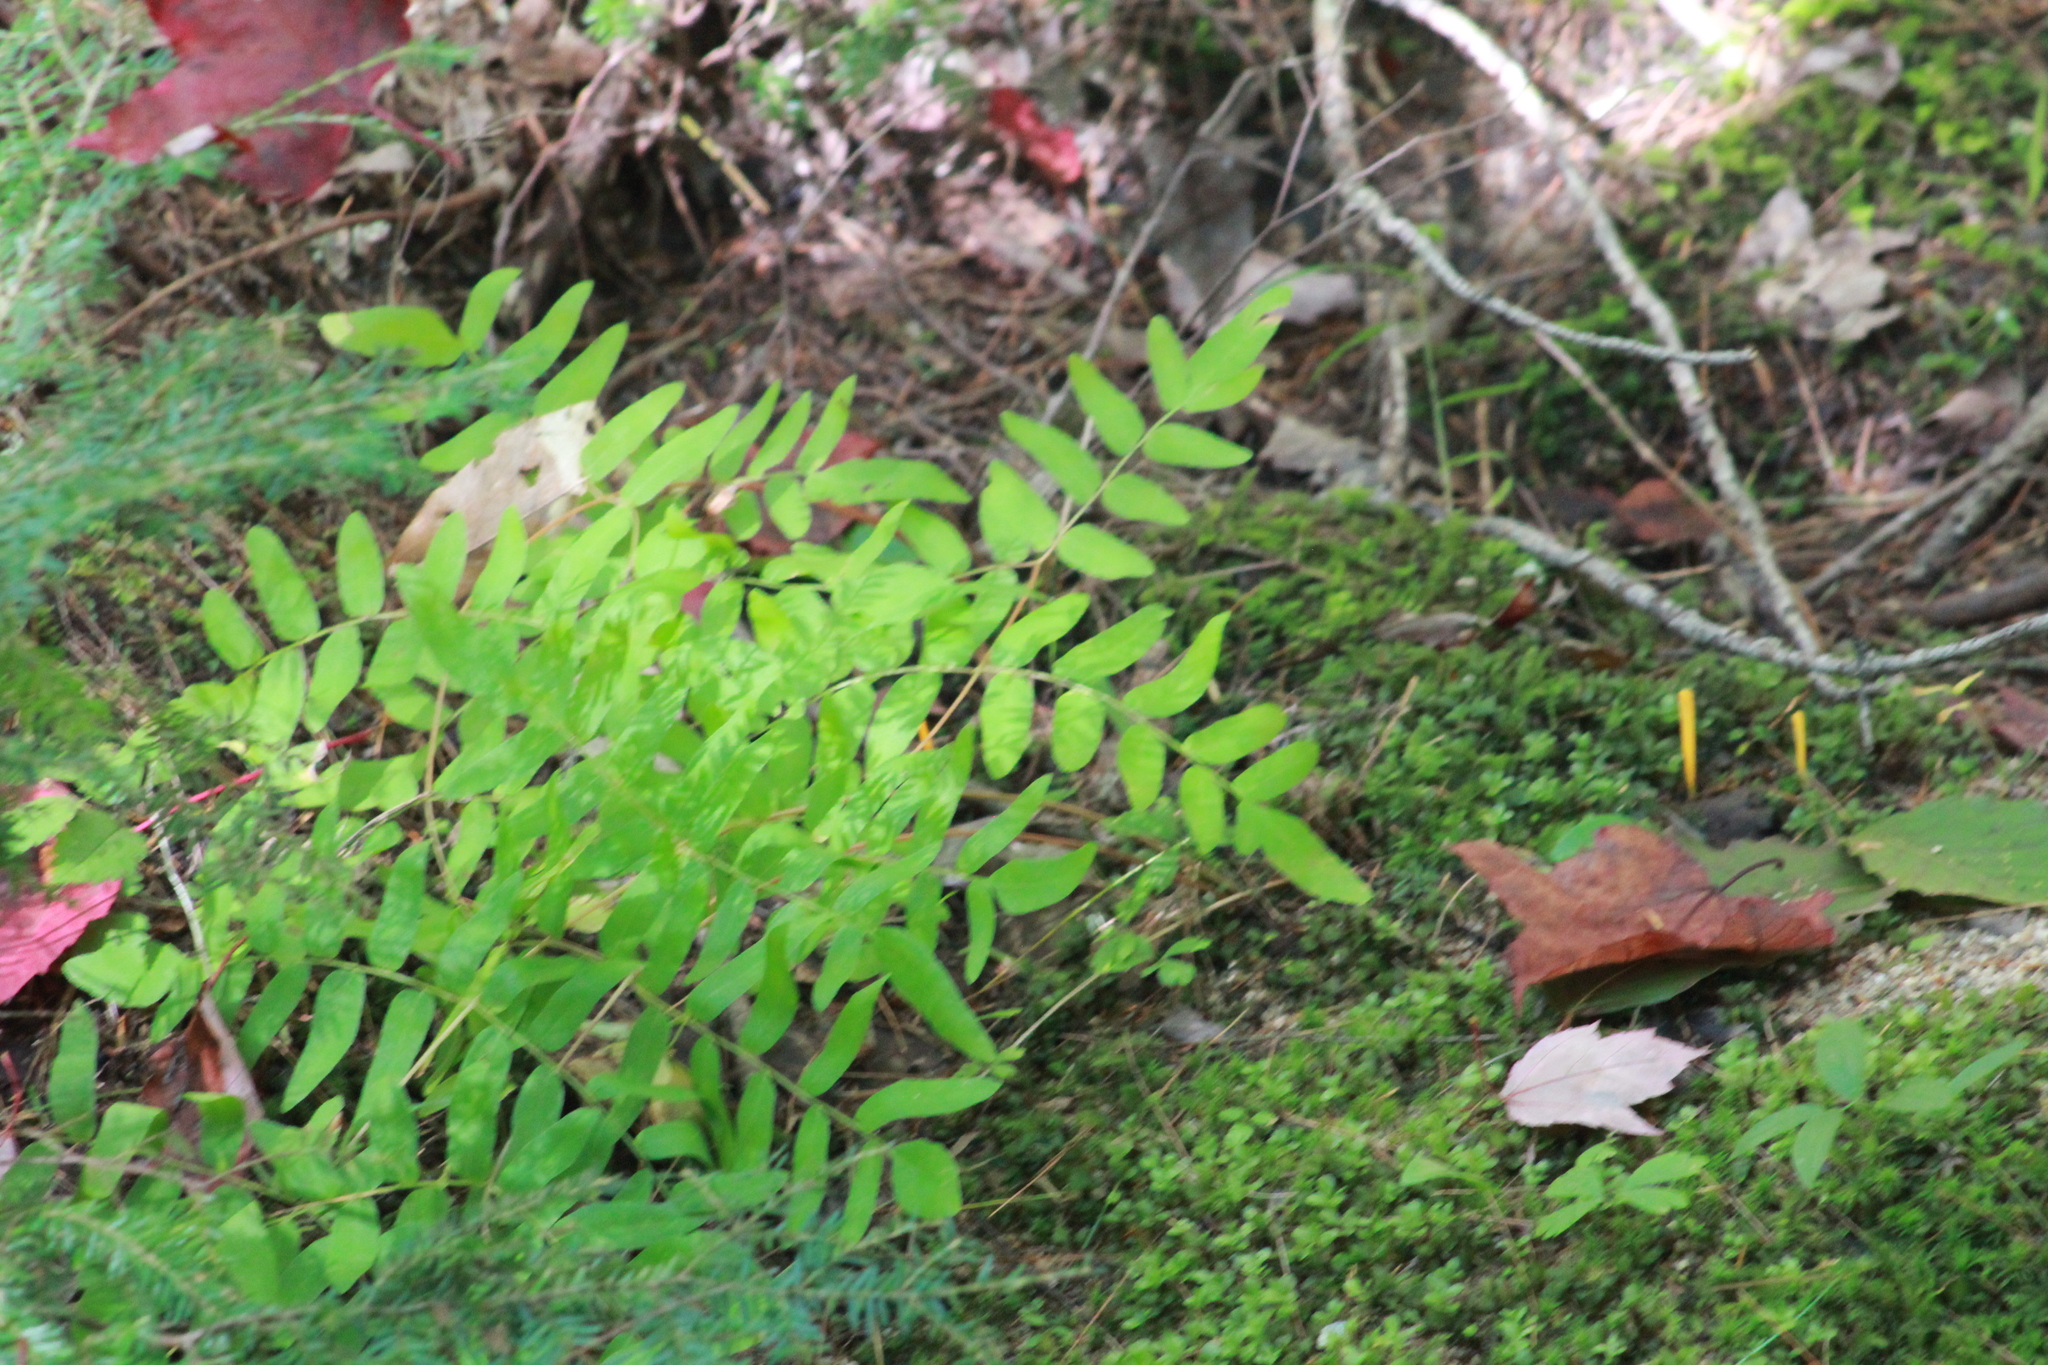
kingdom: Plantae
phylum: Tracheophyta
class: Polypodiopsida
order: Osmundales
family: Osmundaceae
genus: Osmunda
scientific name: Osmunda spectabilis
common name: American royal fern
